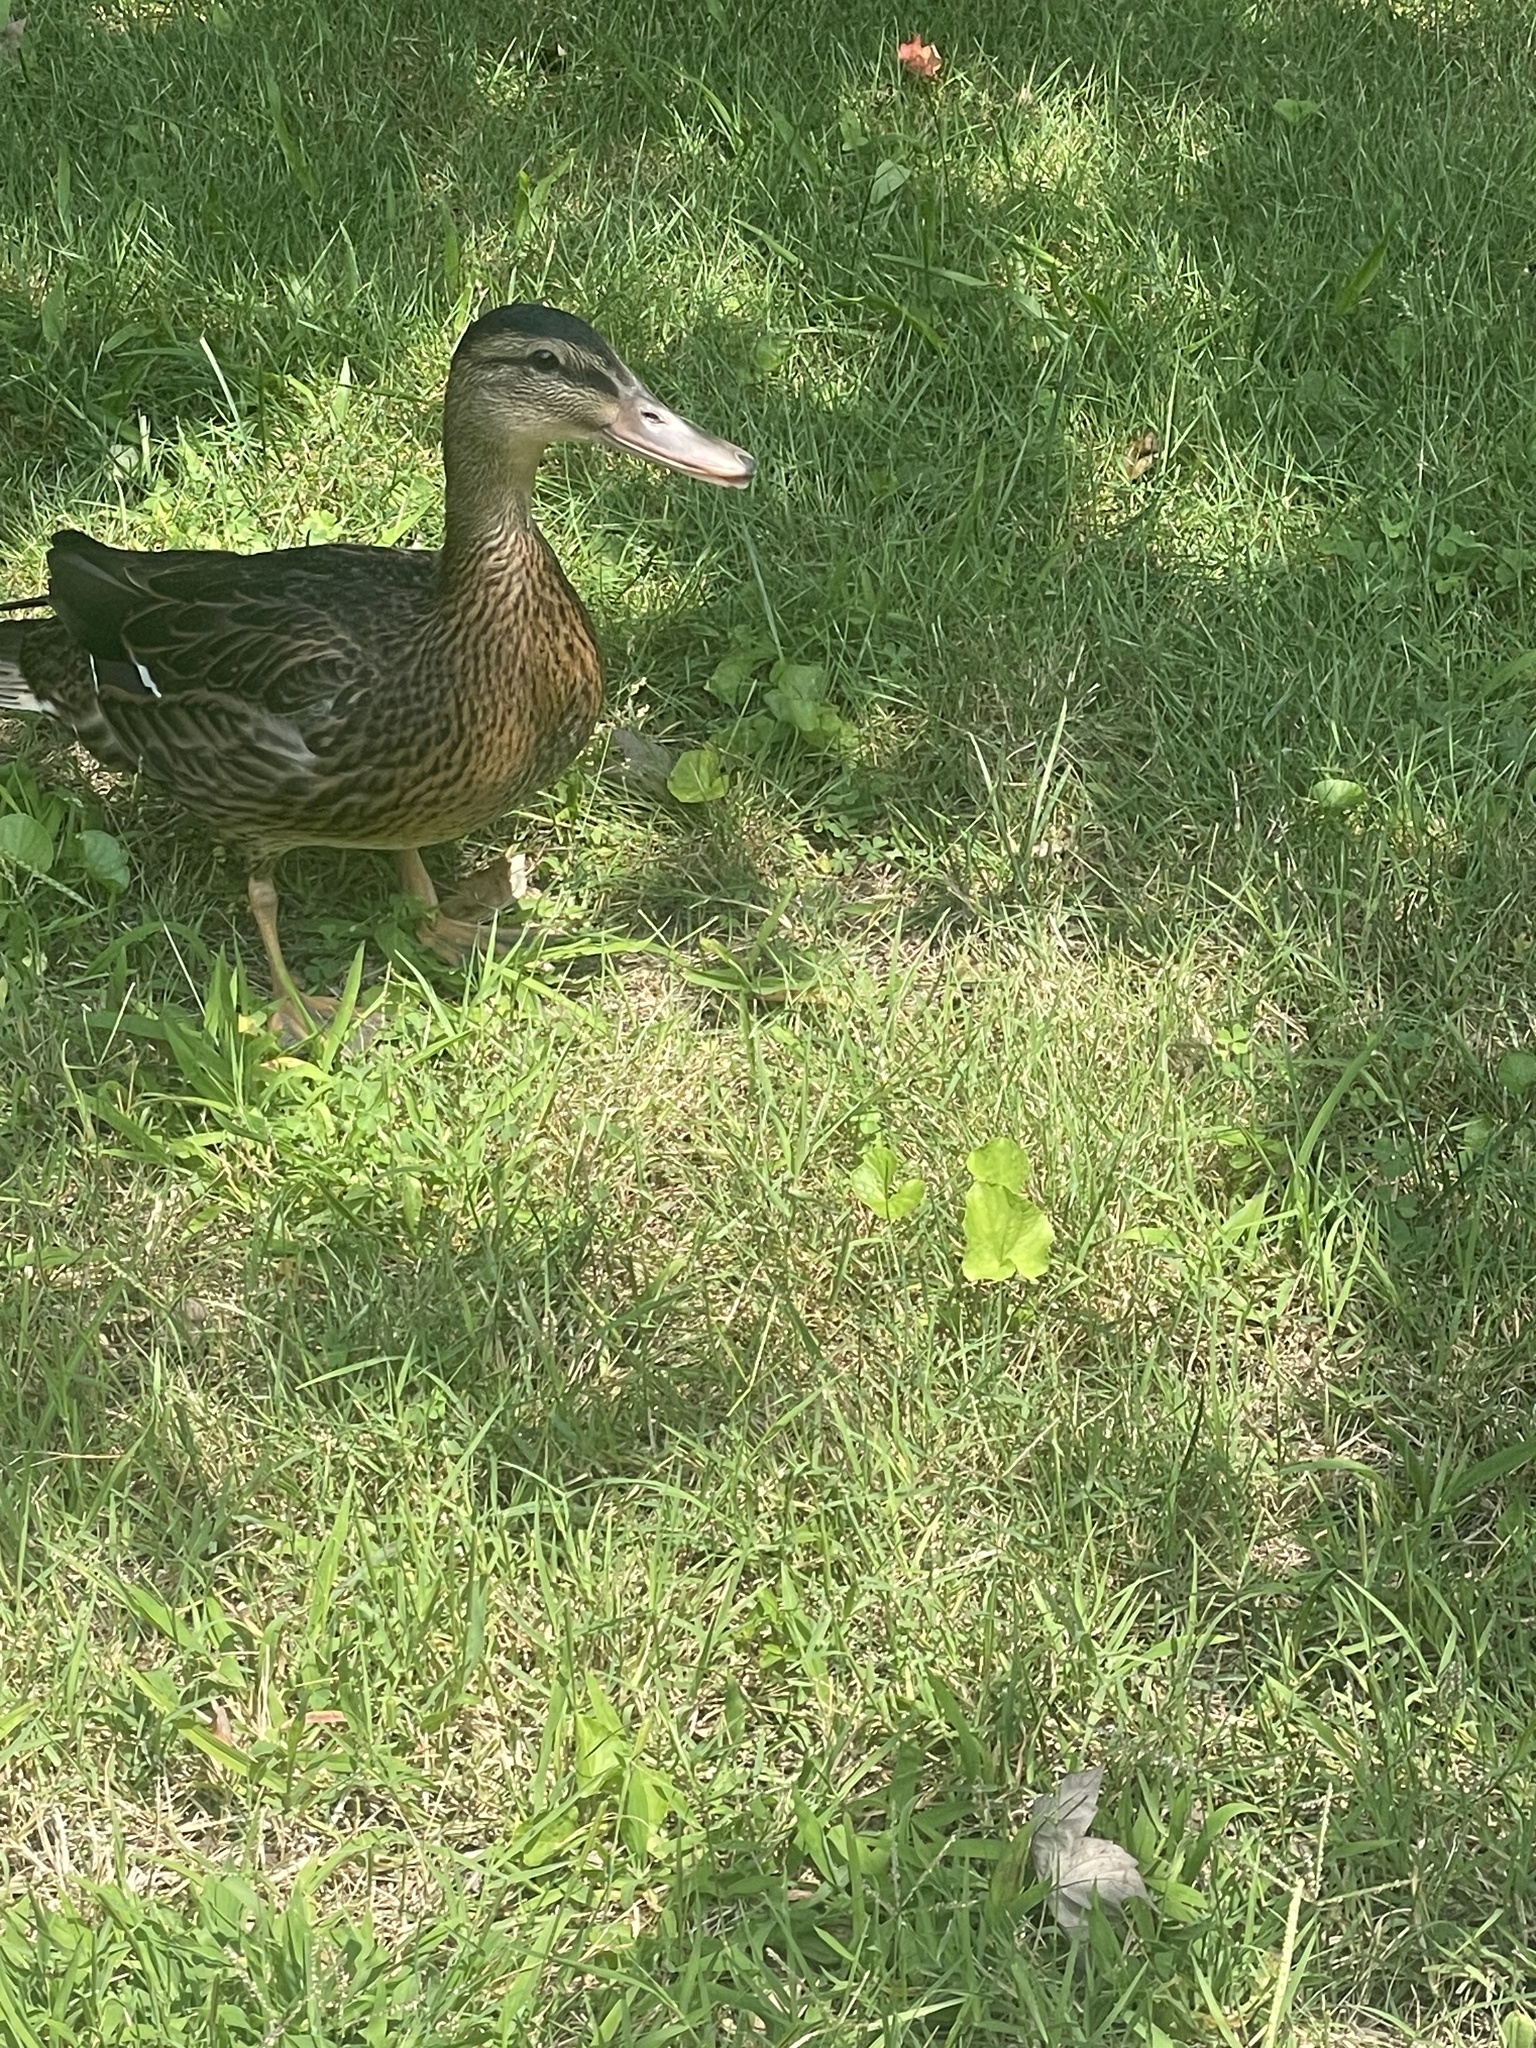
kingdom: Animalia
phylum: Chordata
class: Aves
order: Anseriformes
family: Anatidae
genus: Anas
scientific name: Anas platyrhynchos
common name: Mallard
